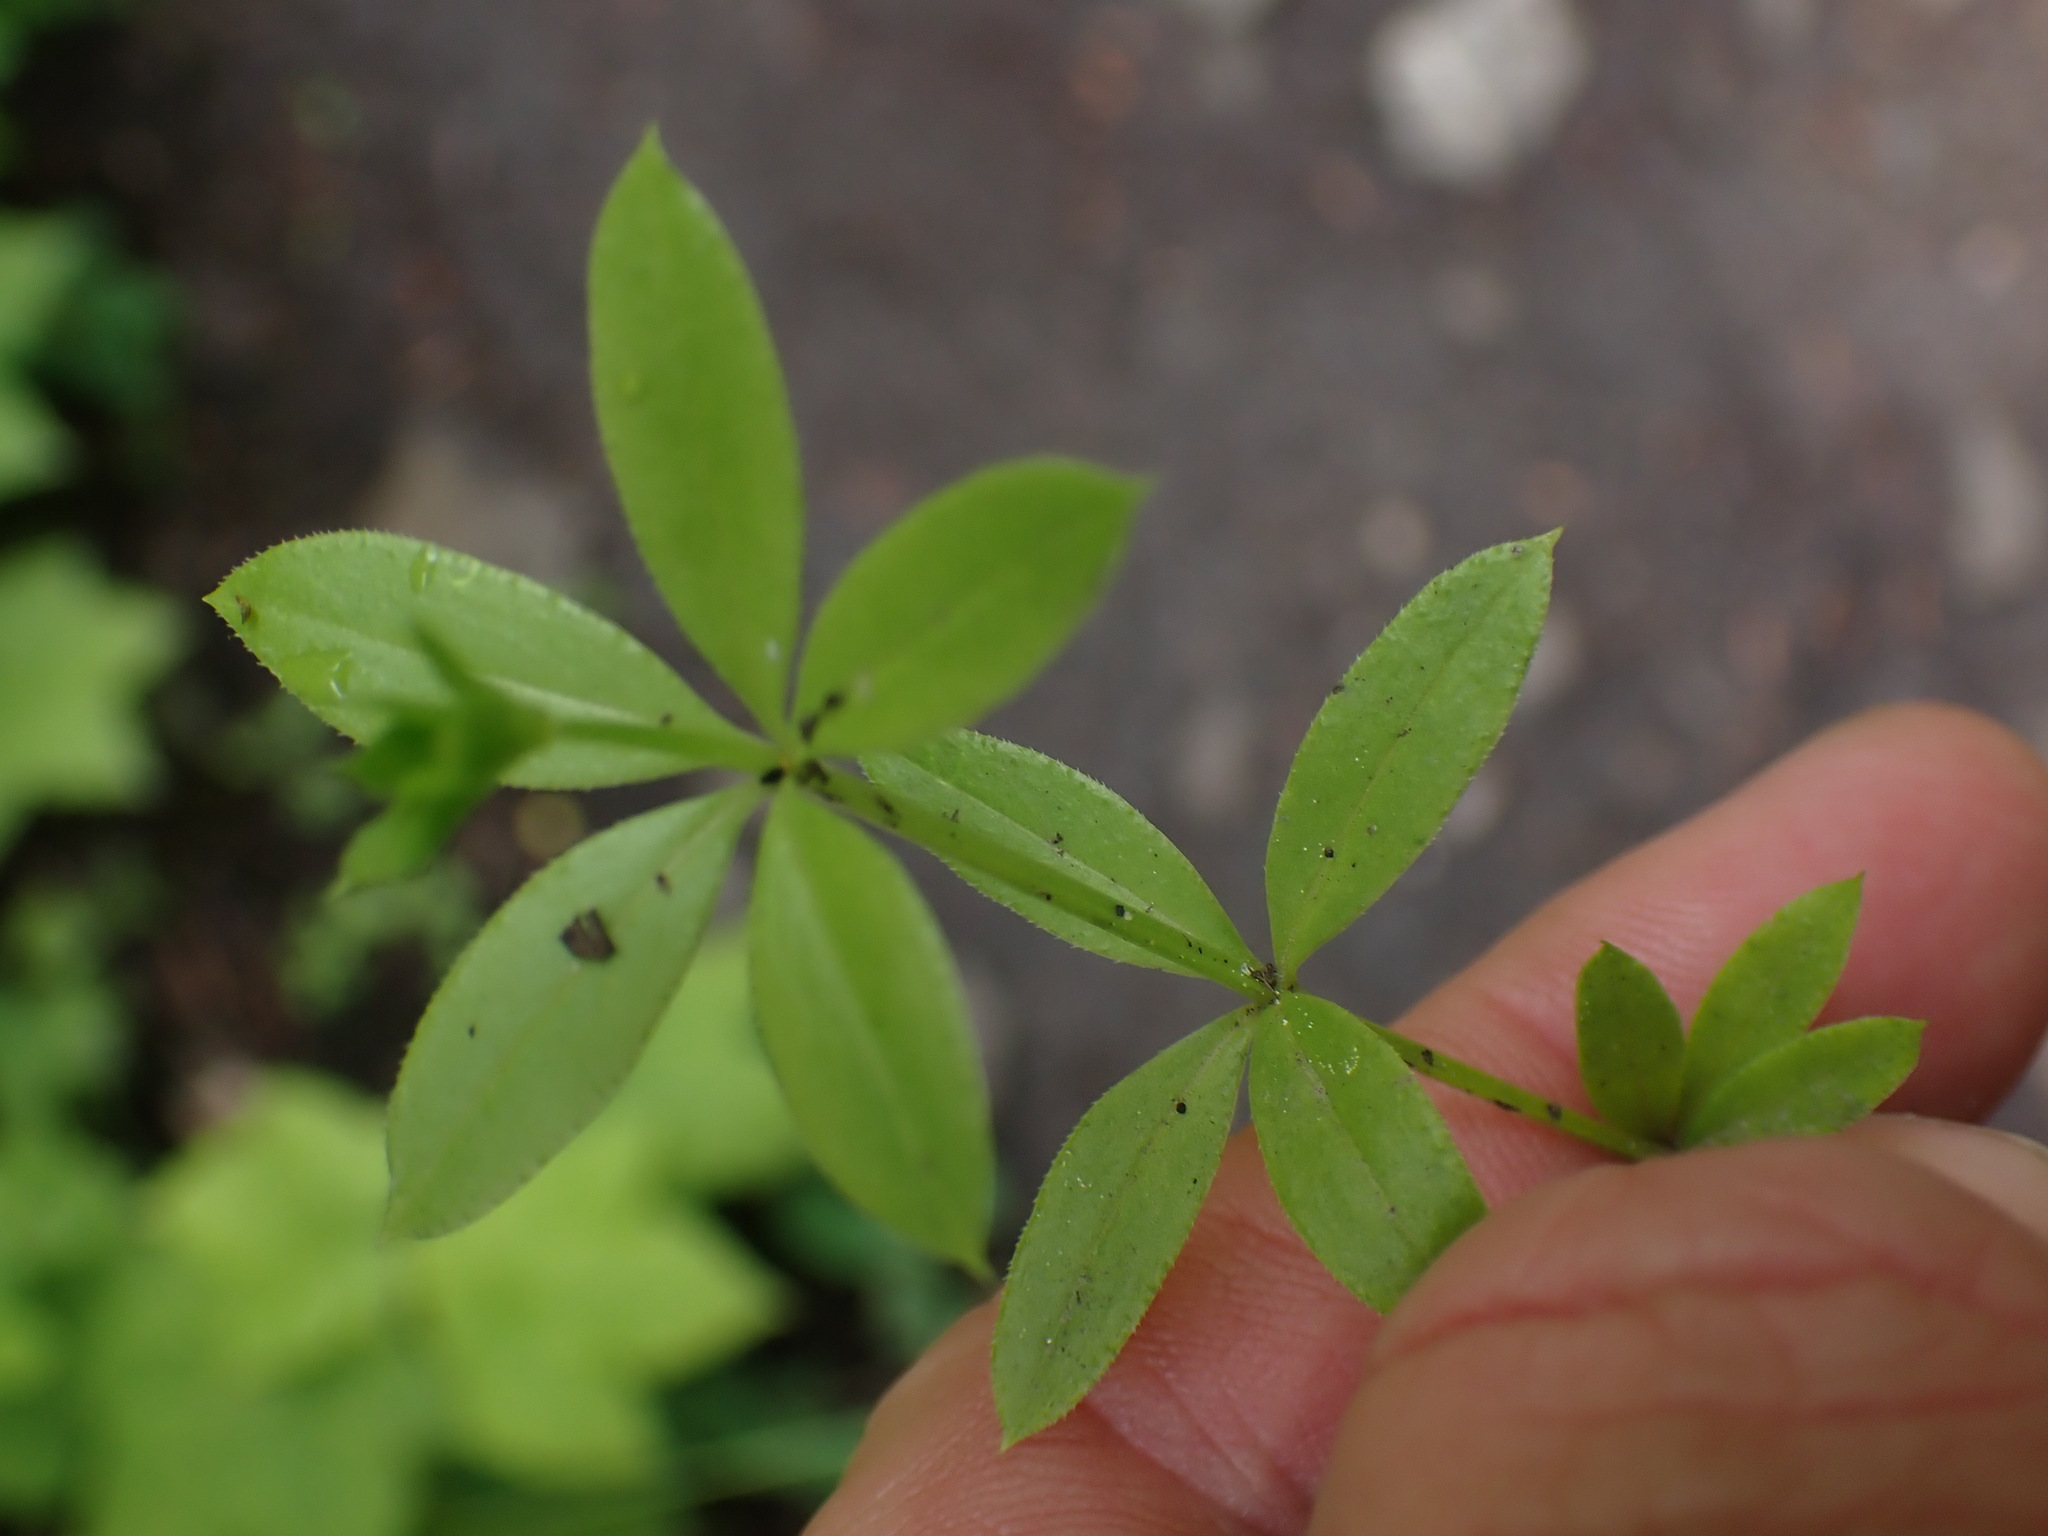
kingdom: Plantae
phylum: Tracheophyta
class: Magnoliopsida
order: Gentianales
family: Rubiaceae
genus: Galium
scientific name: Galium triflorum
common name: Fragrant bedstraw
